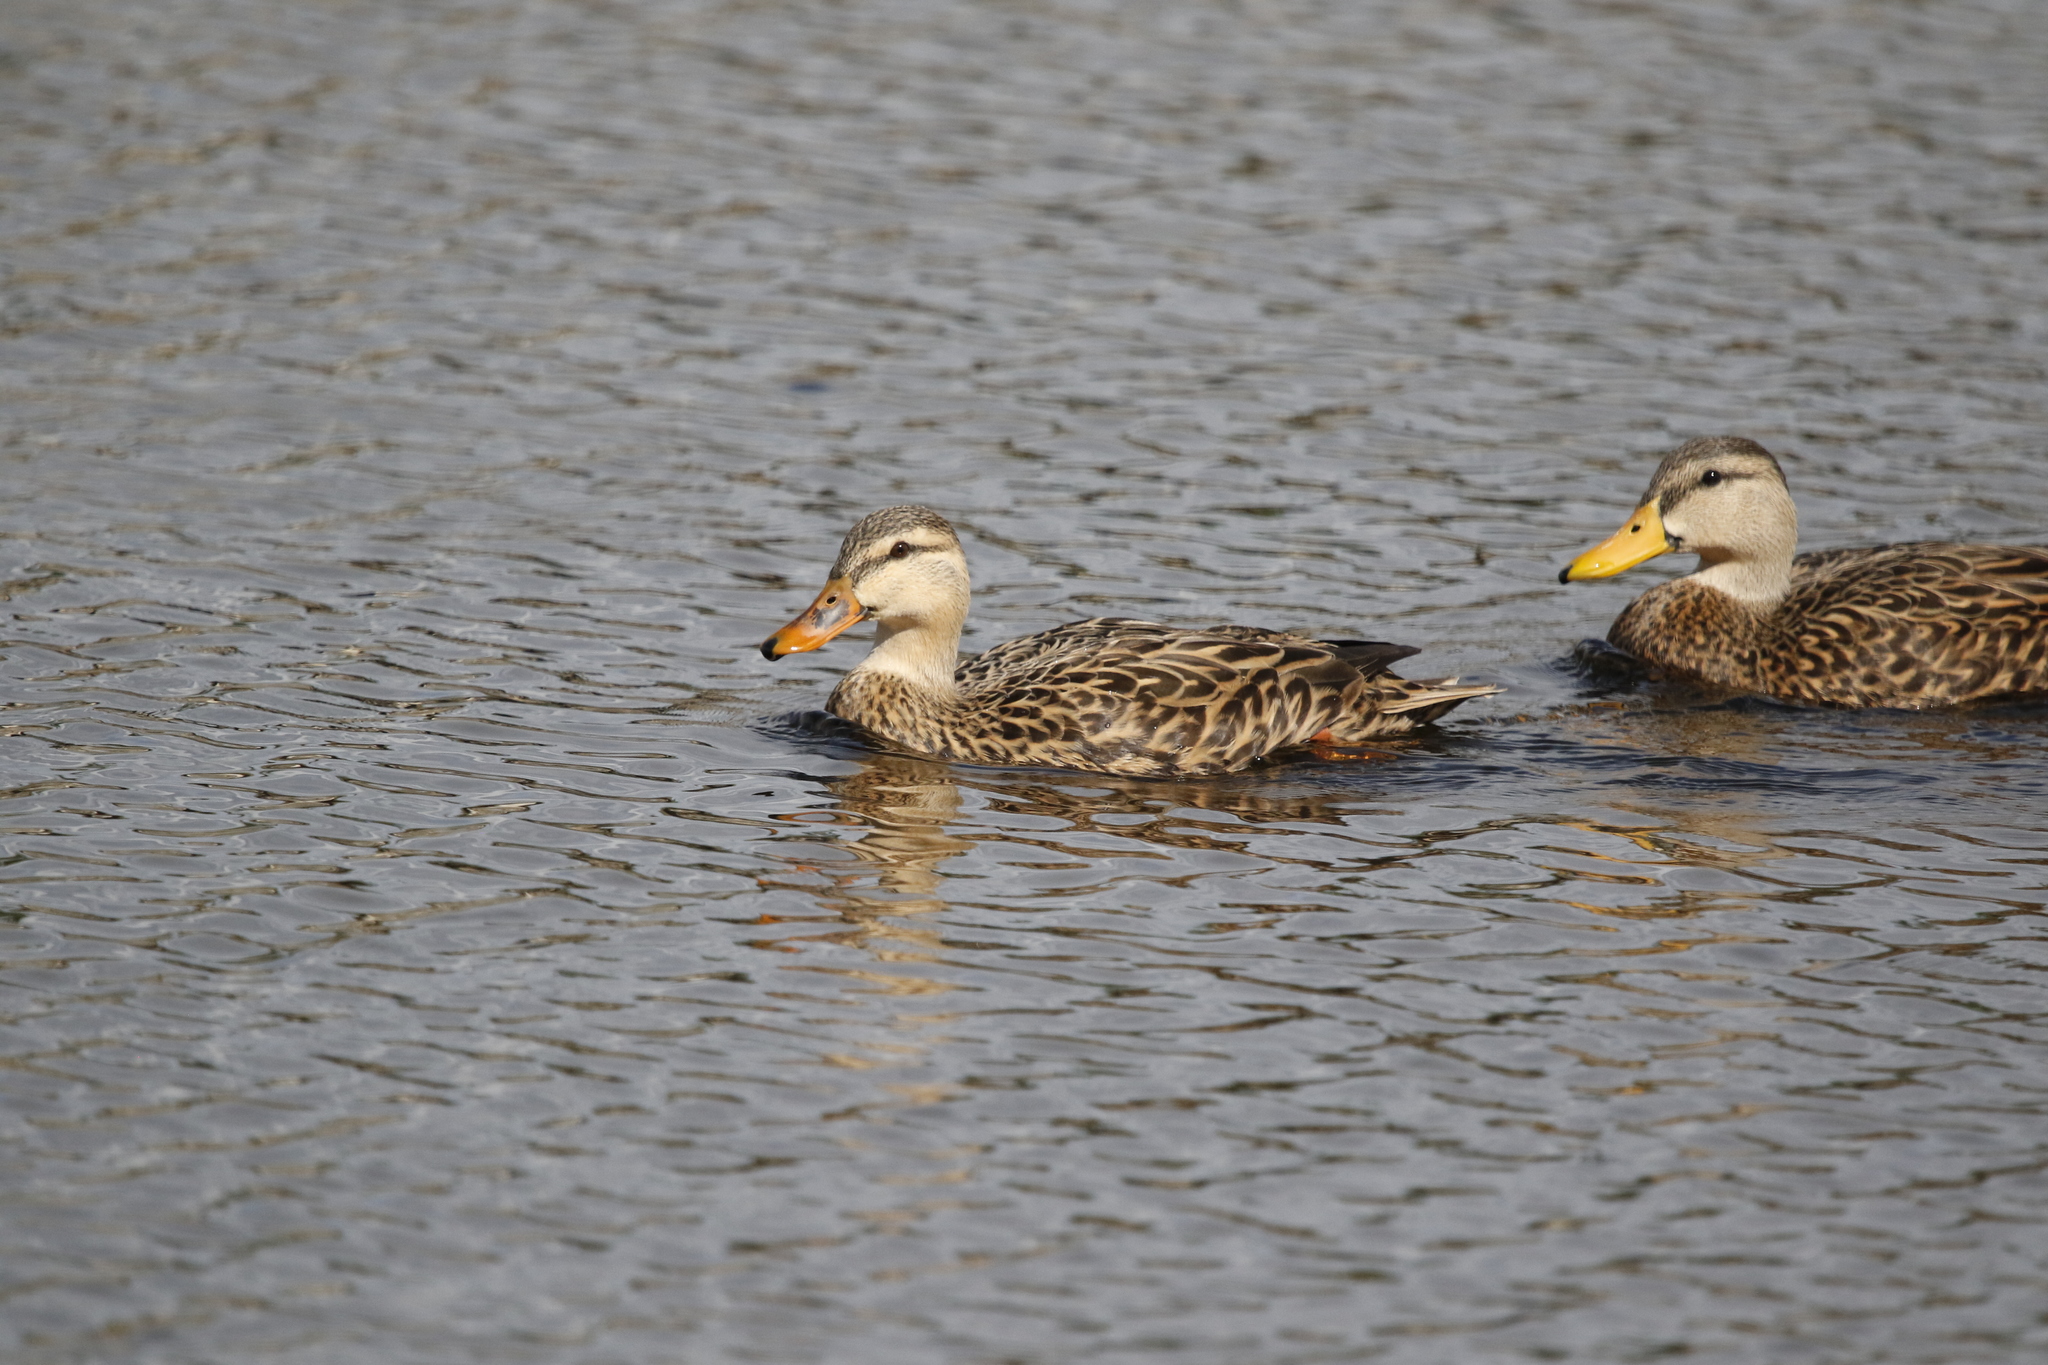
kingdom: Animalia
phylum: Chordata
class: Aves
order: Anseriformes
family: Anatidae
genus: Anas
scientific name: Anas
